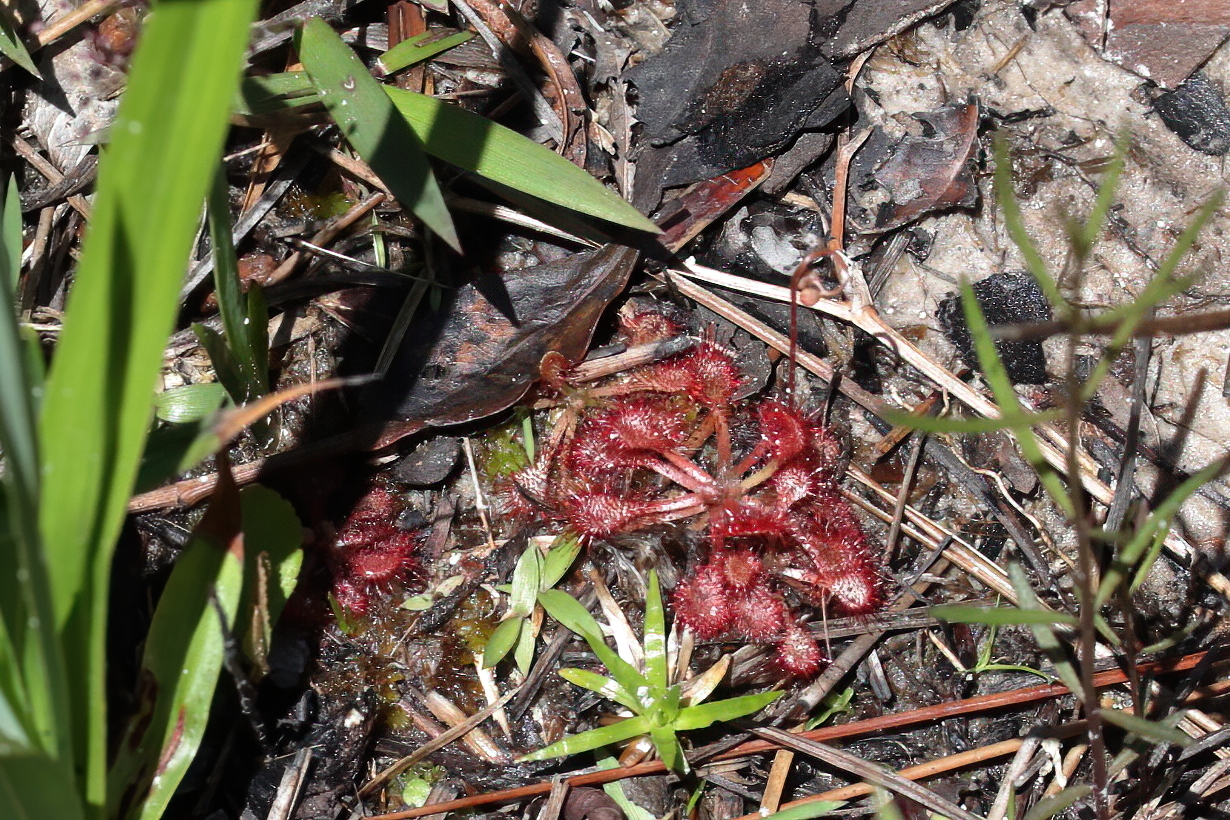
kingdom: Plantae
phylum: Tracheophyta
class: Magnoliopsida
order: Caryophyllales
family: Droseraceae
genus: Drosera
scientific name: Drosera capillaris
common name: Pink sundew
